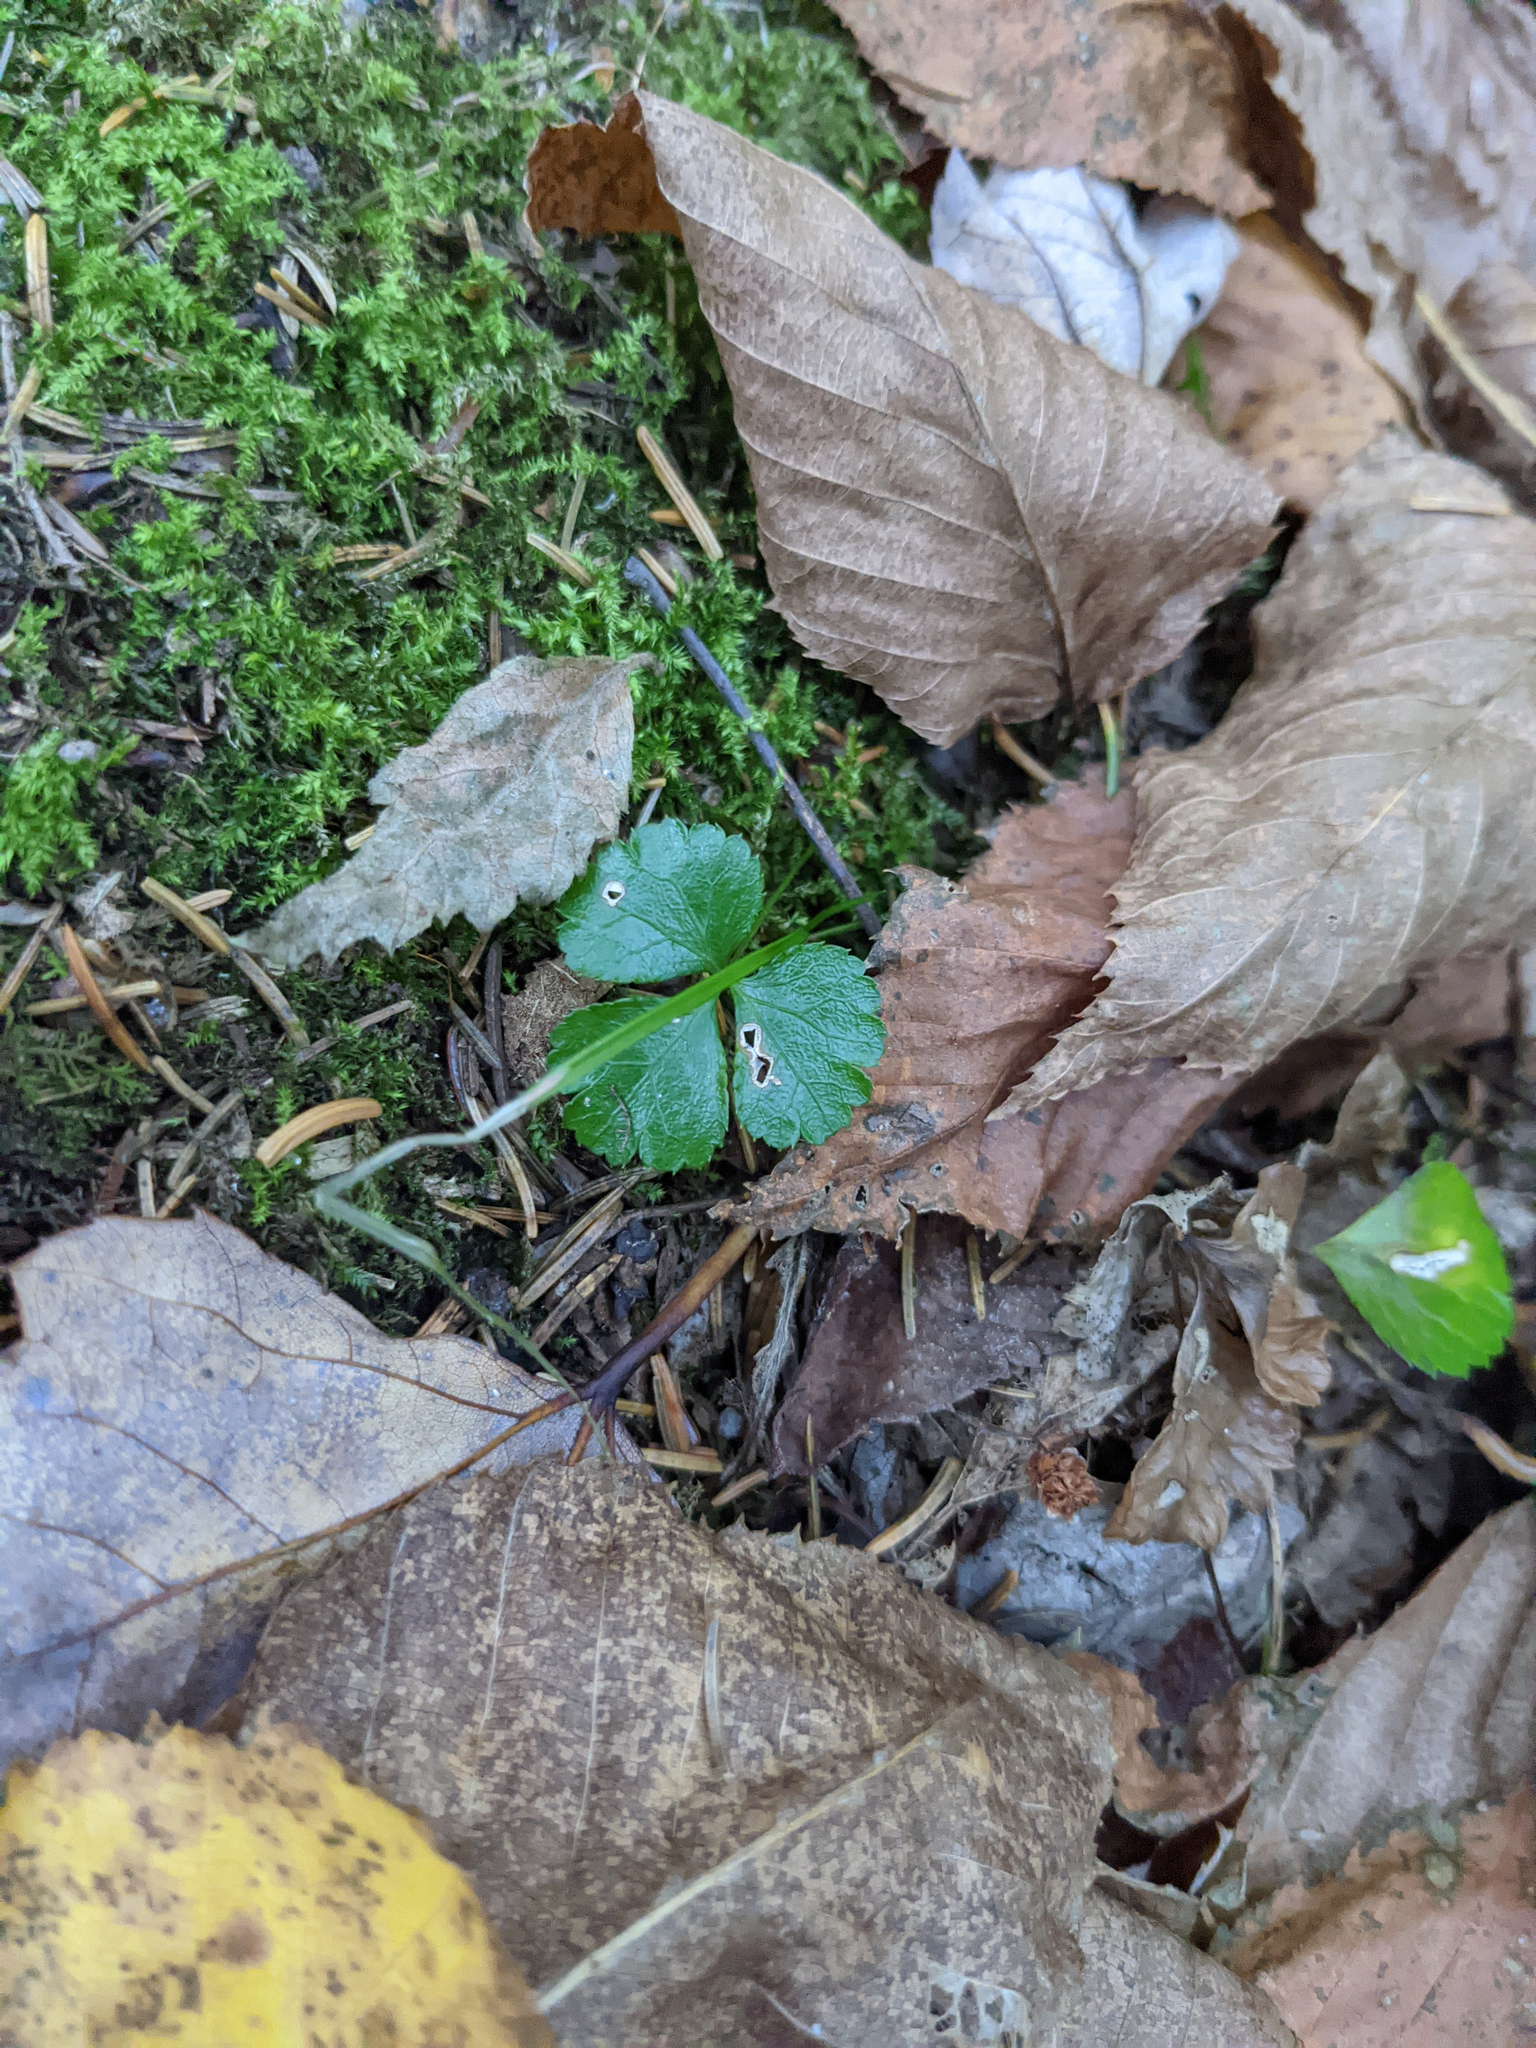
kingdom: Plantae
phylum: Tracheophyta
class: Magnoliopsida
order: Ranunculales
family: Ranunculaceae
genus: Coptis
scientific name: Coptis trifolia
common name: Canker-root
